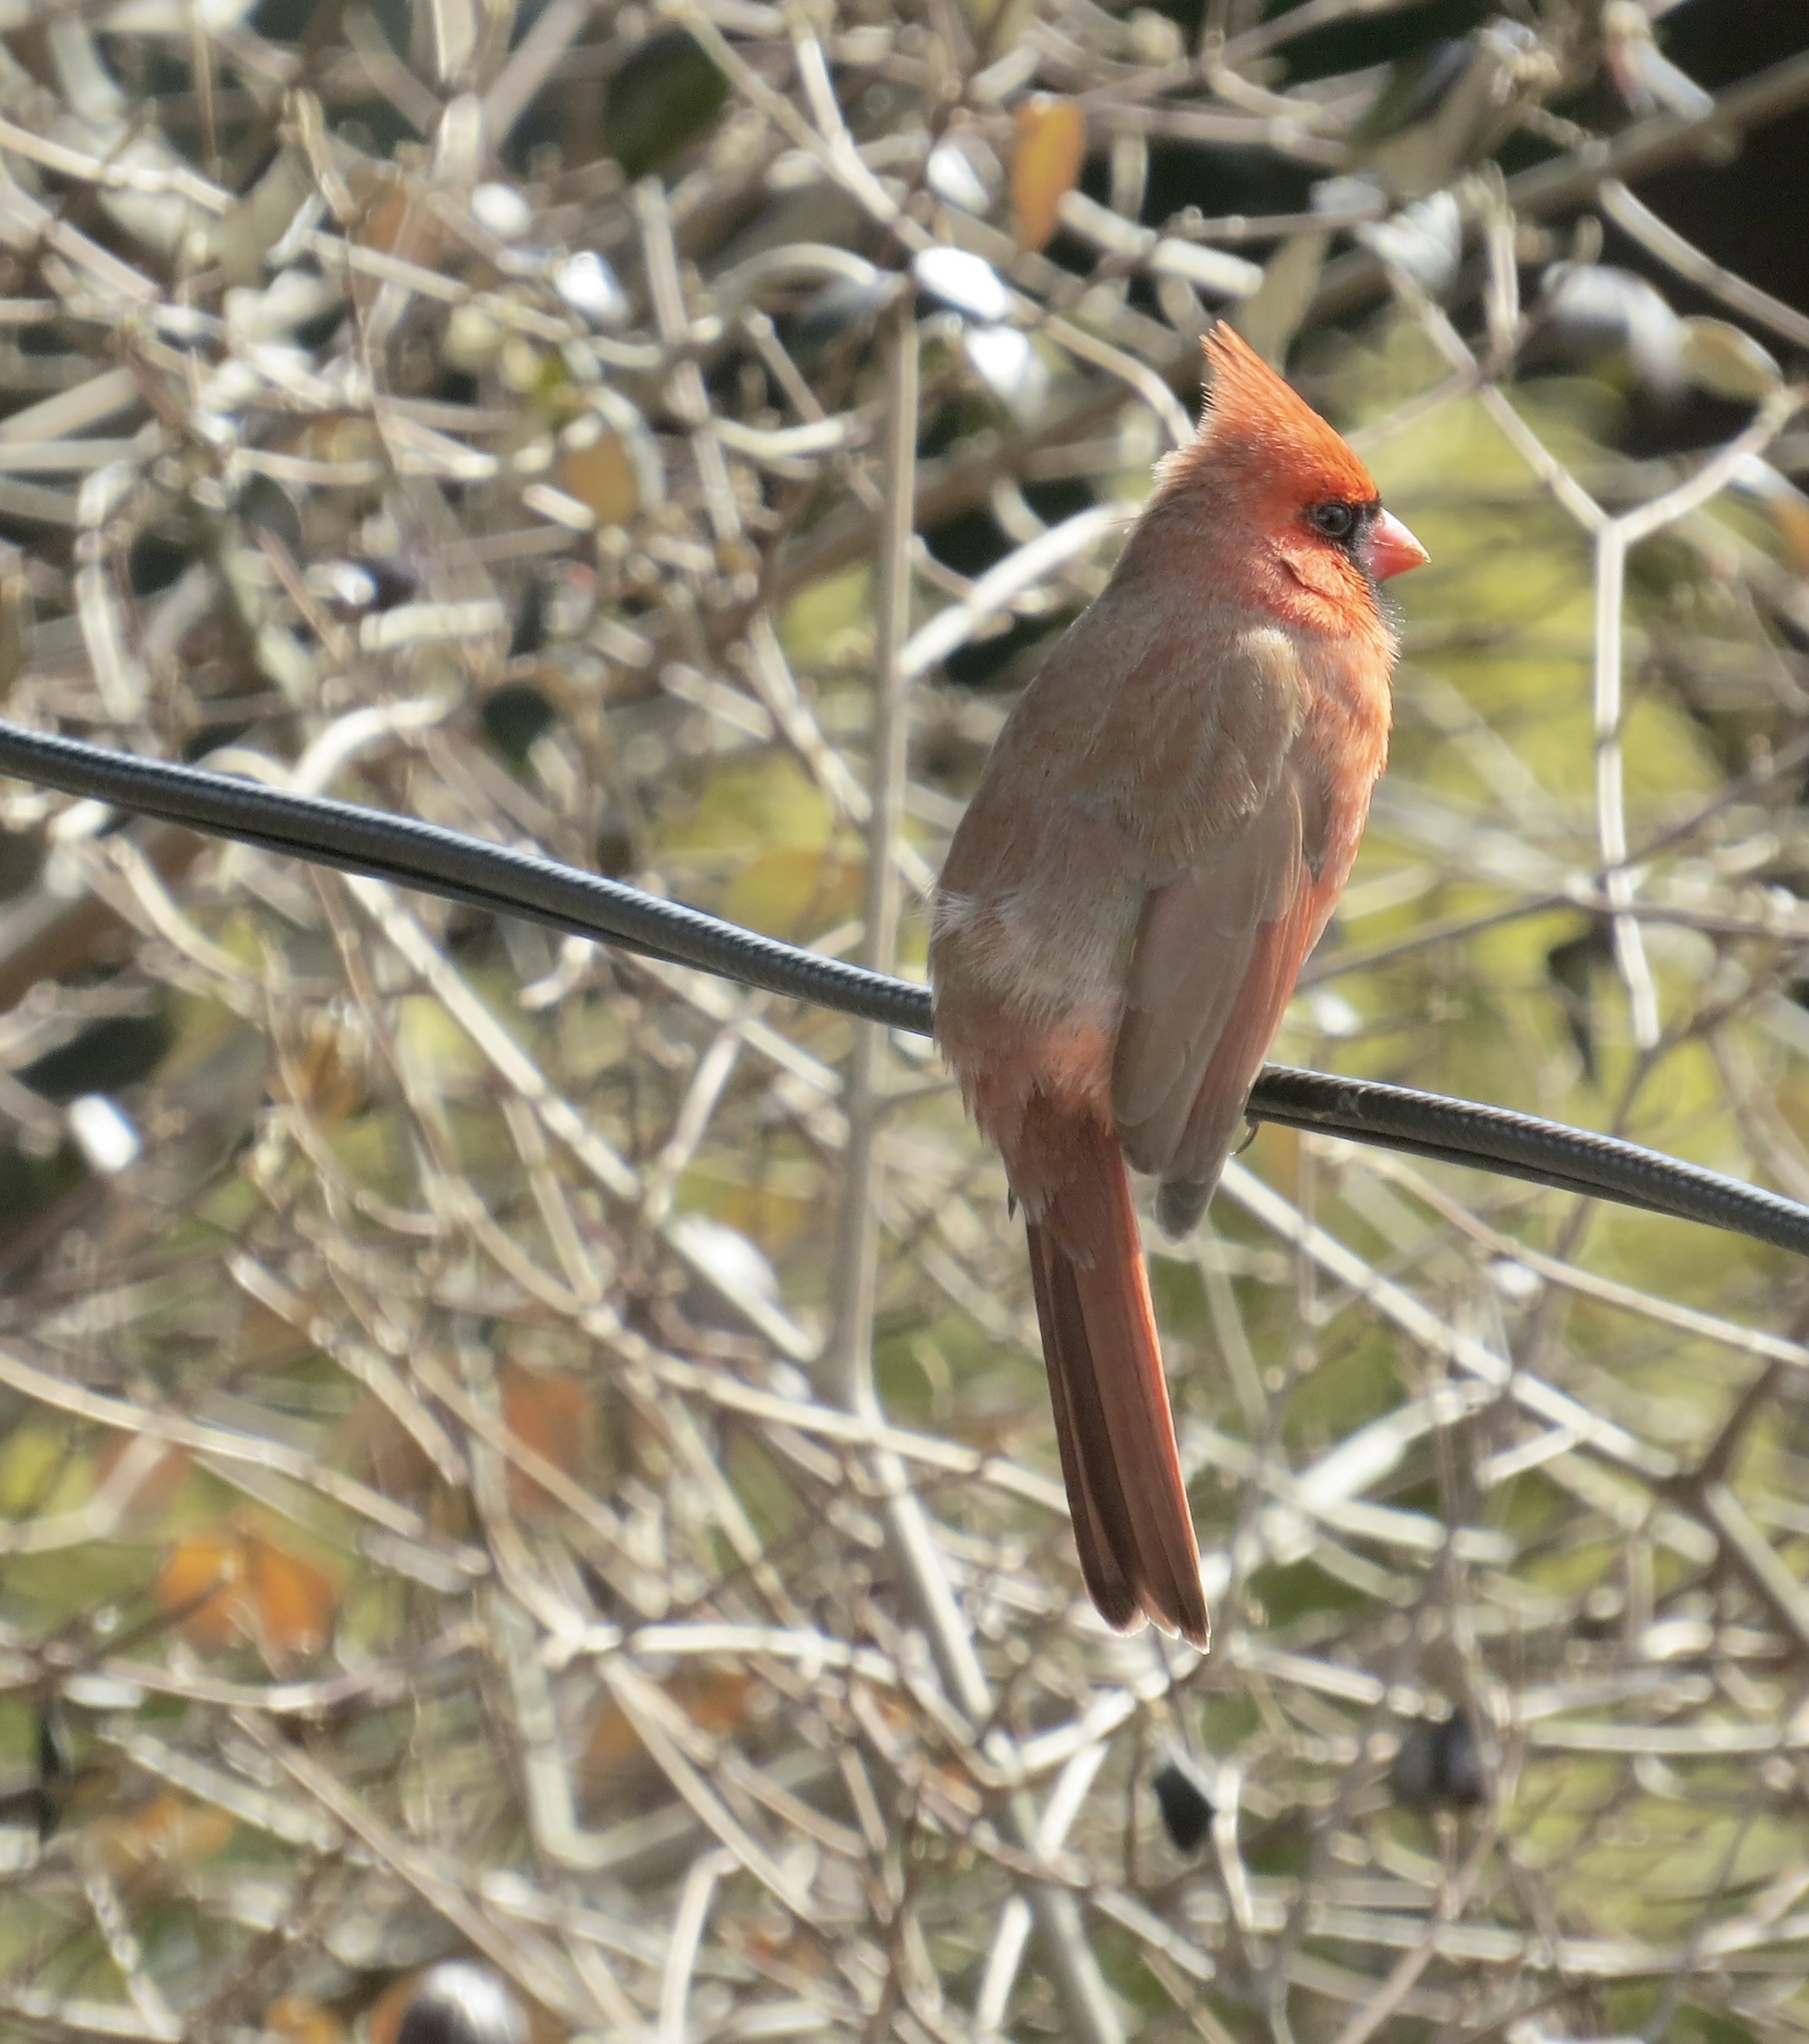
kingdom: Animalia
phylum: Chordata
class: Aves
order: Passeriformes
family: Cardinalidae
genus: Cardinalis
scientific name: Cardinalis cardinalis
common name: Northern cardinal
